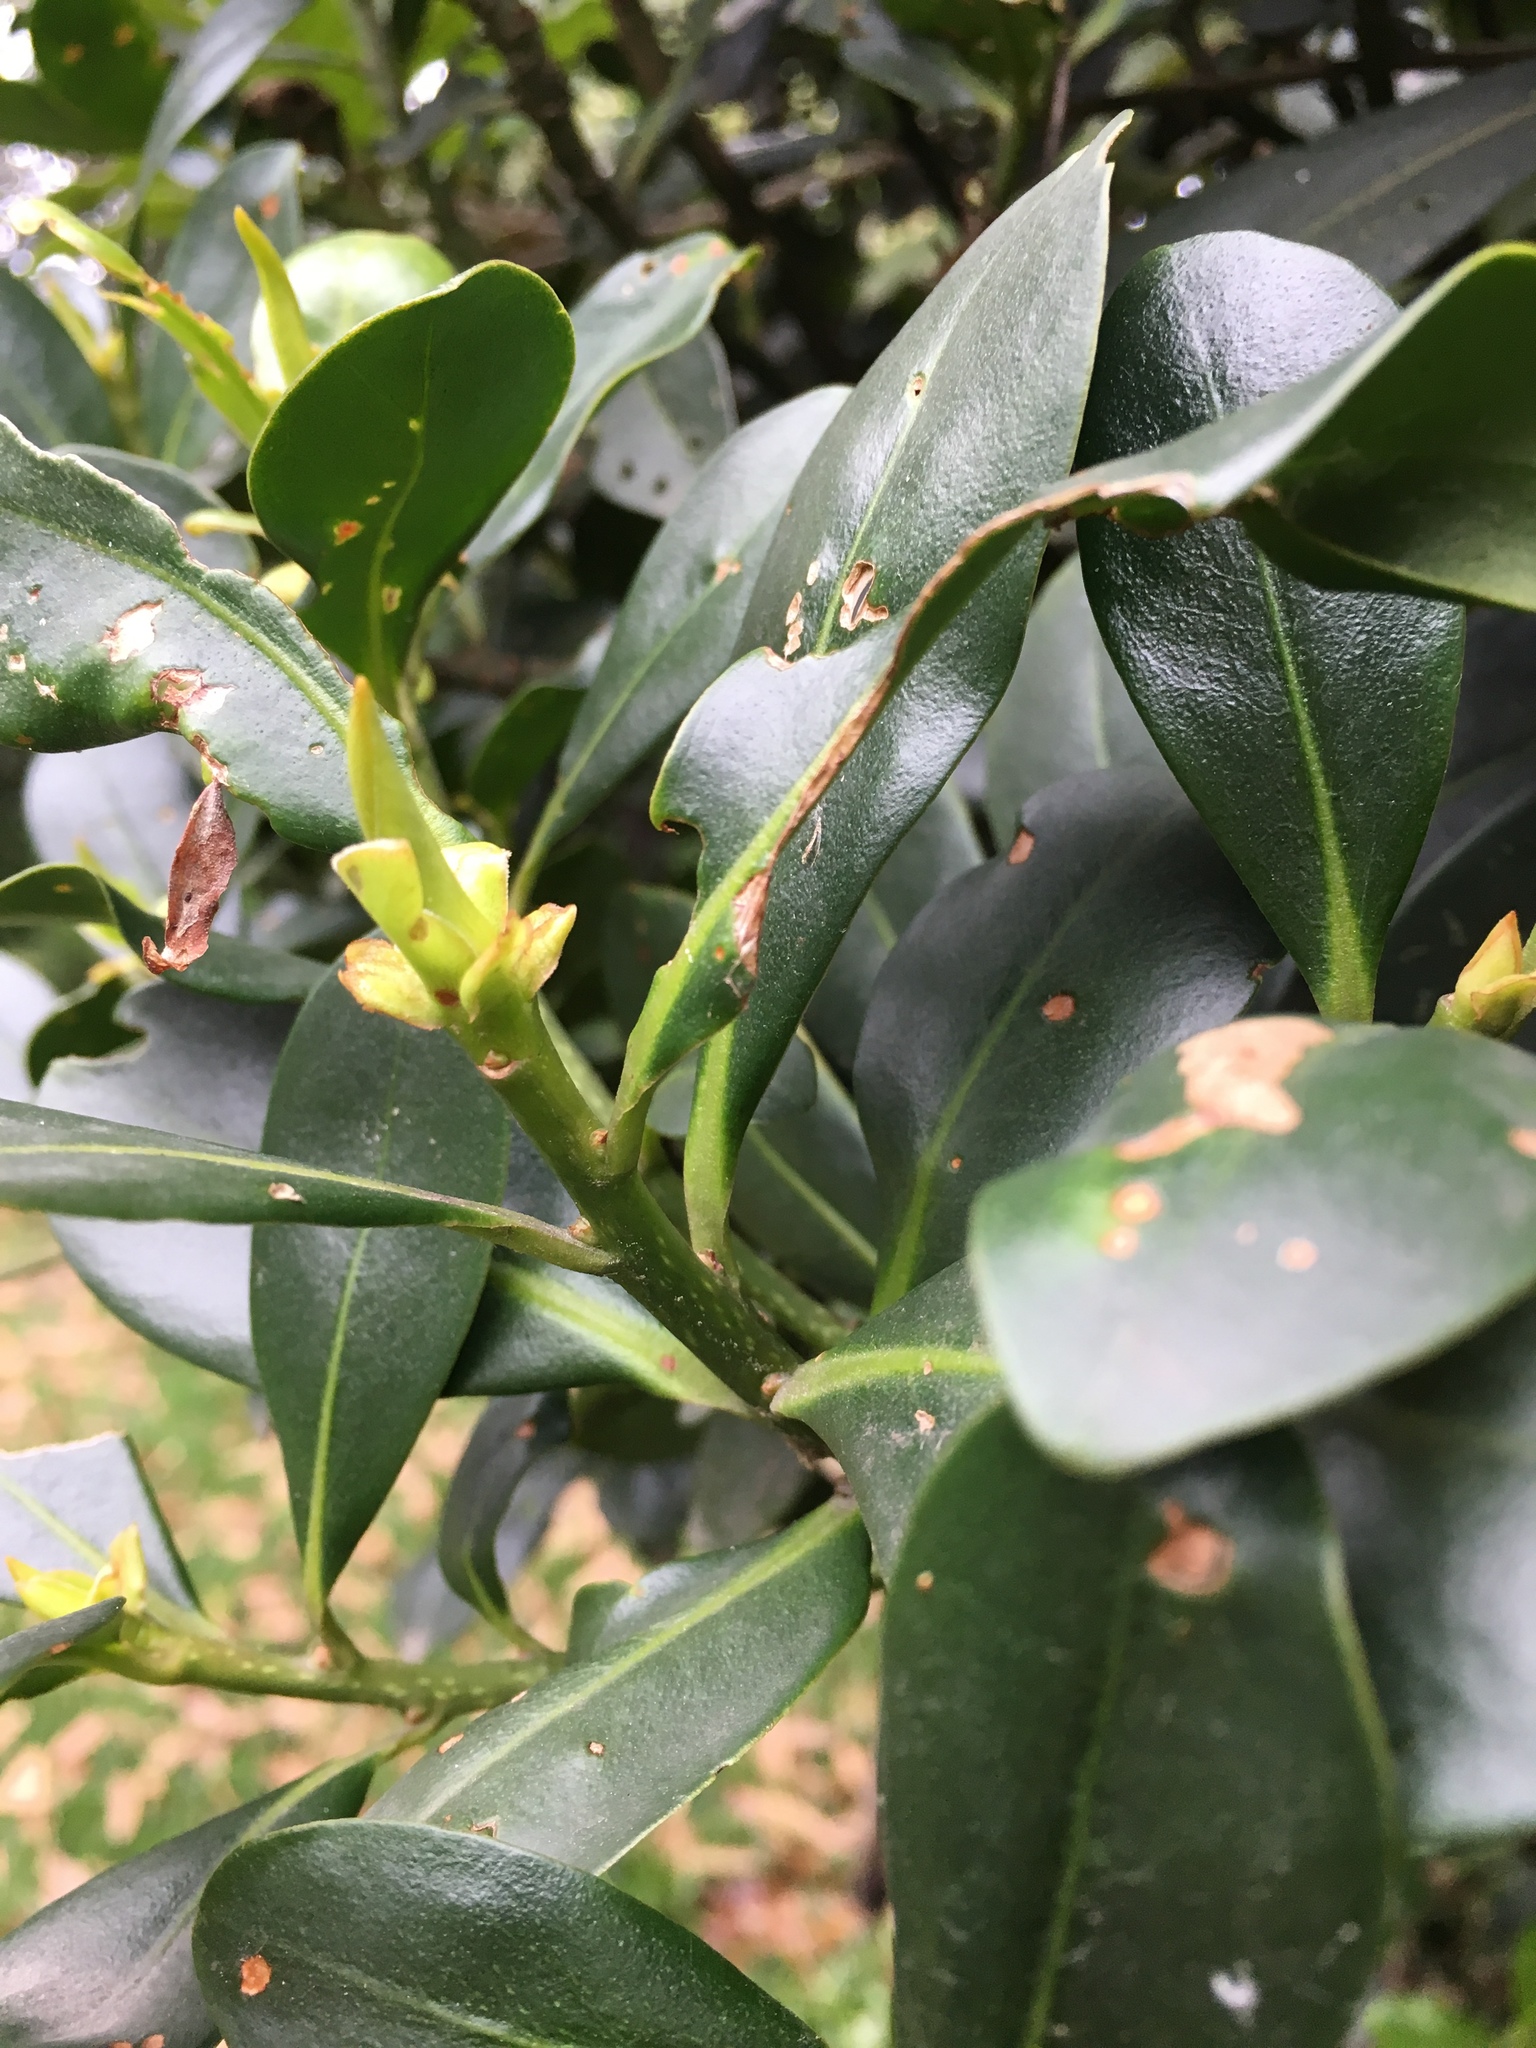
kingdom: Plantae
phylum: Tracheophyta
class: Magnoliopsida
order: Ericales
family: Primulaceae
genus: Myrsine
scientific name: Myrsine guianensis
